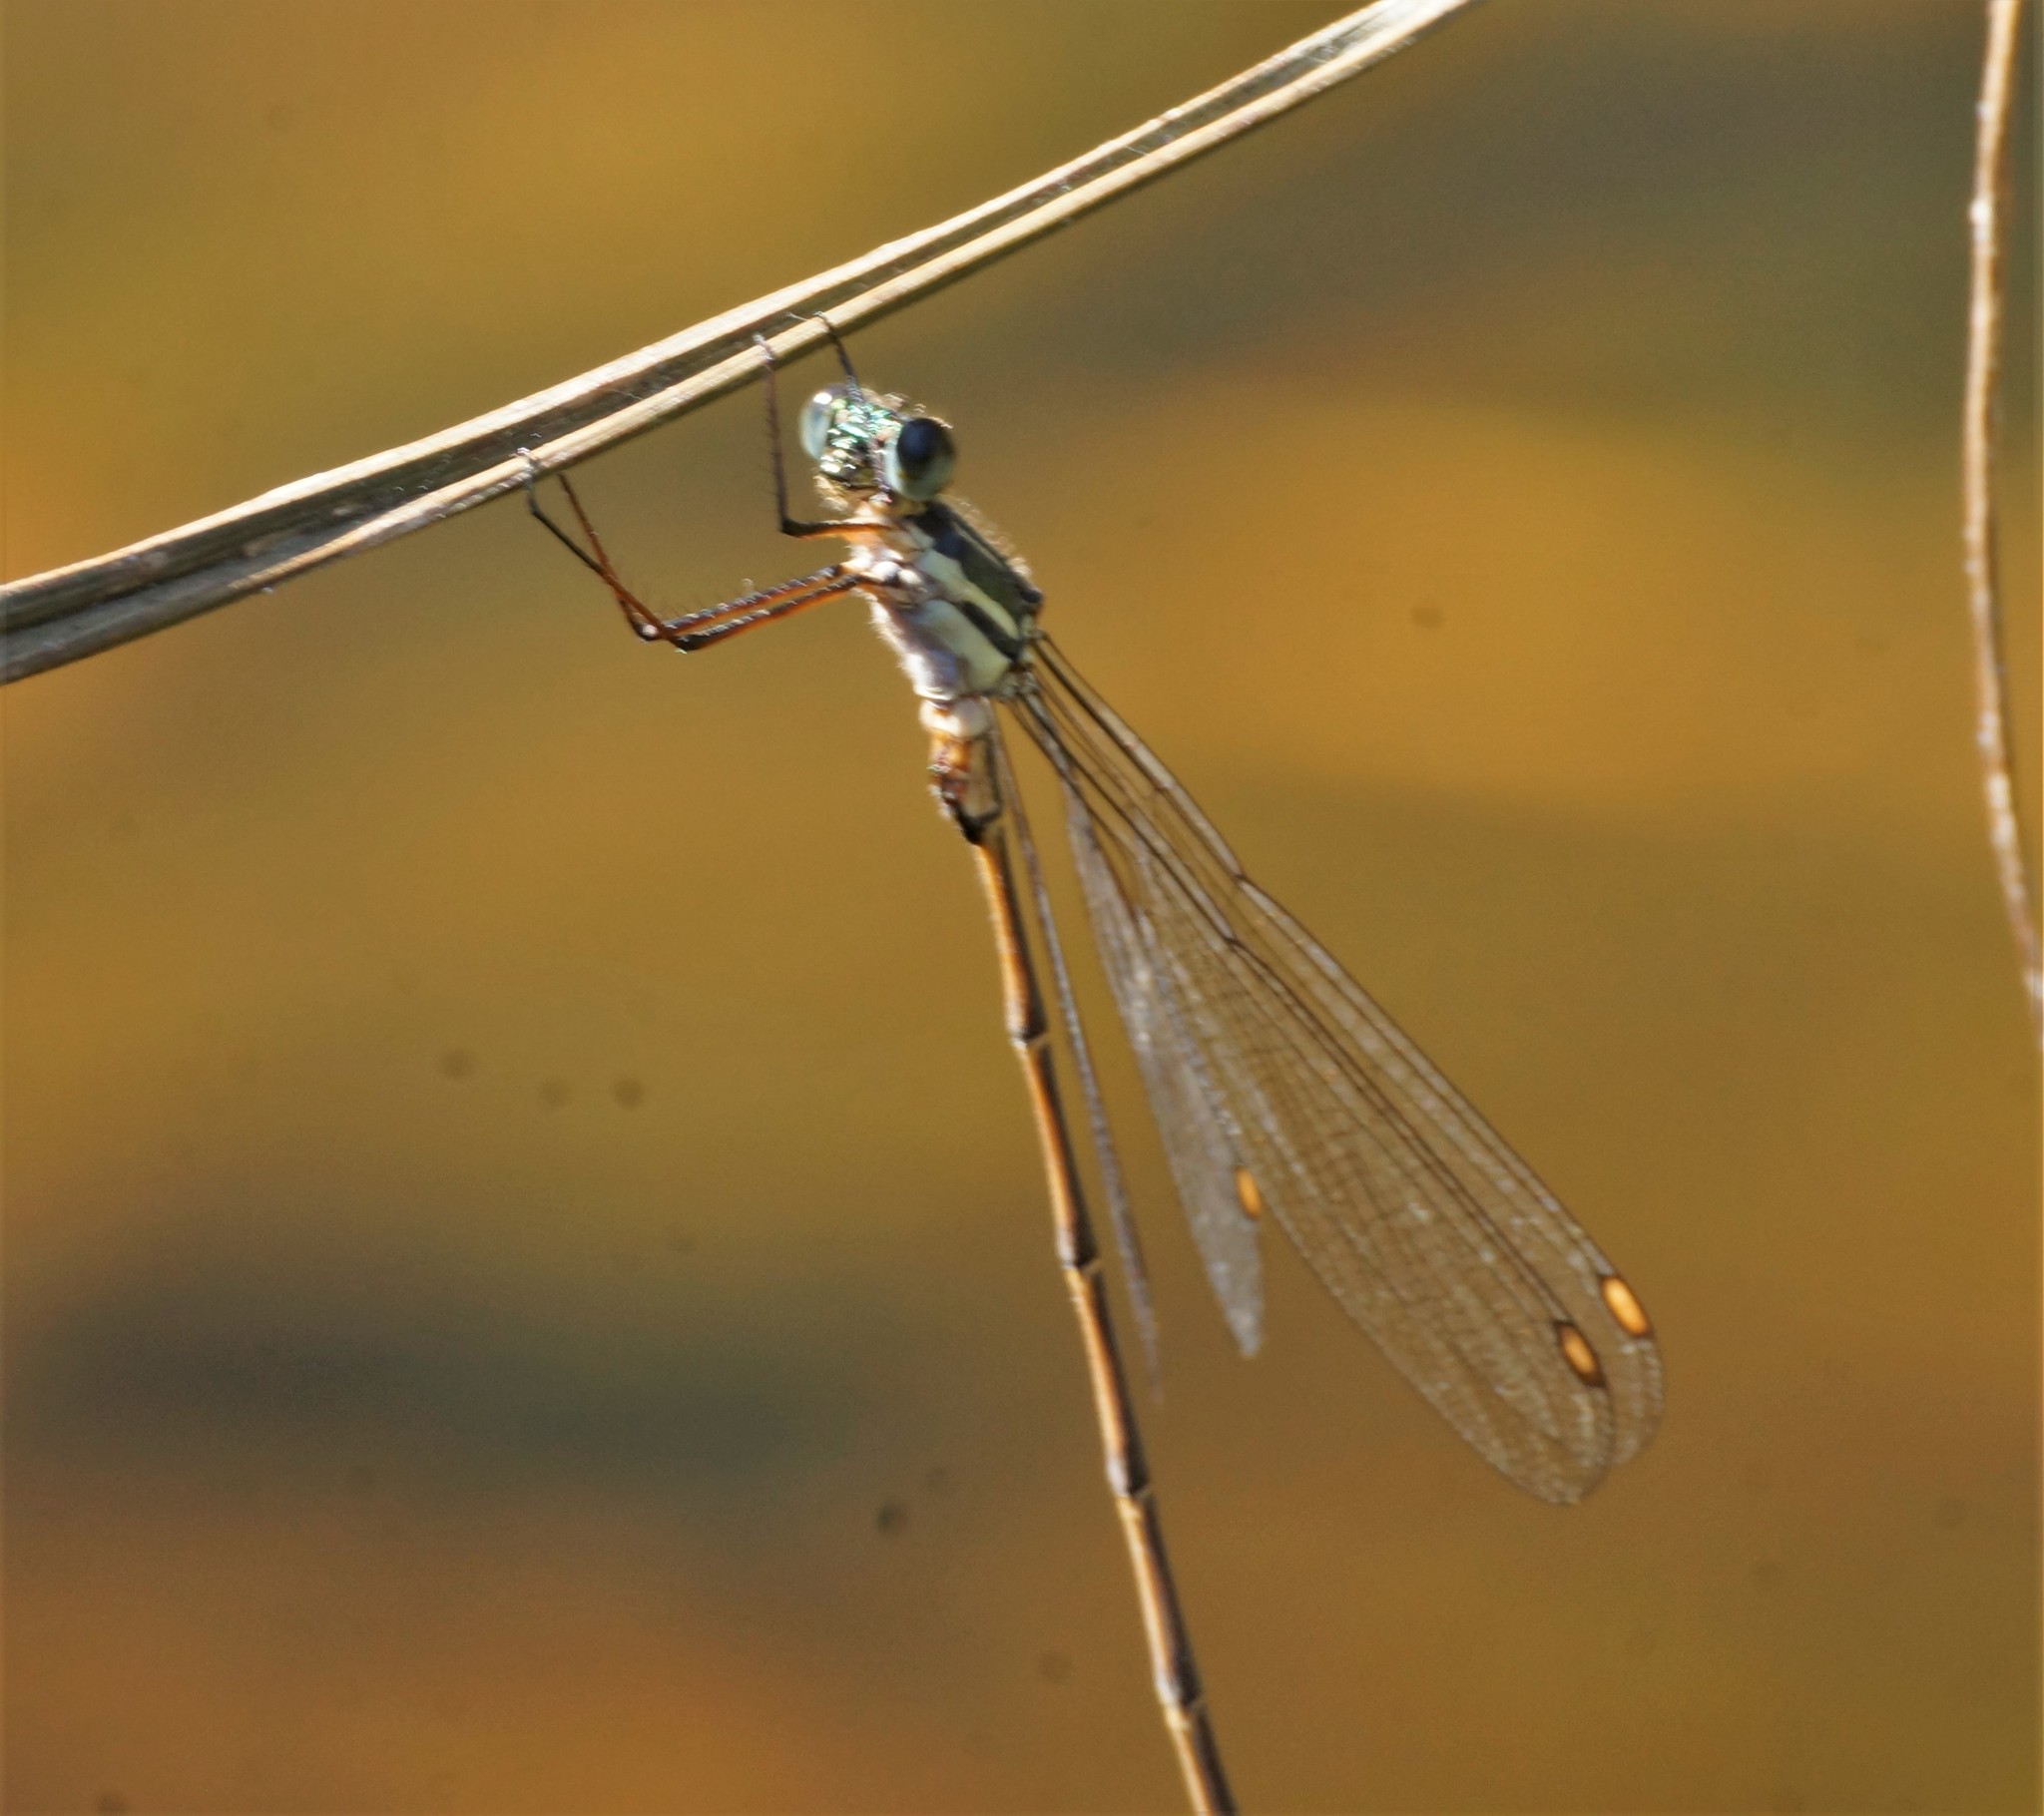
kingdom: Animalia
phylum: Arthropoda
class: Insecta
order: Odonata
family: Synlestidae
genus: Synlestes
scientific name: Synlestes weyersii
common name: Bronze needle
